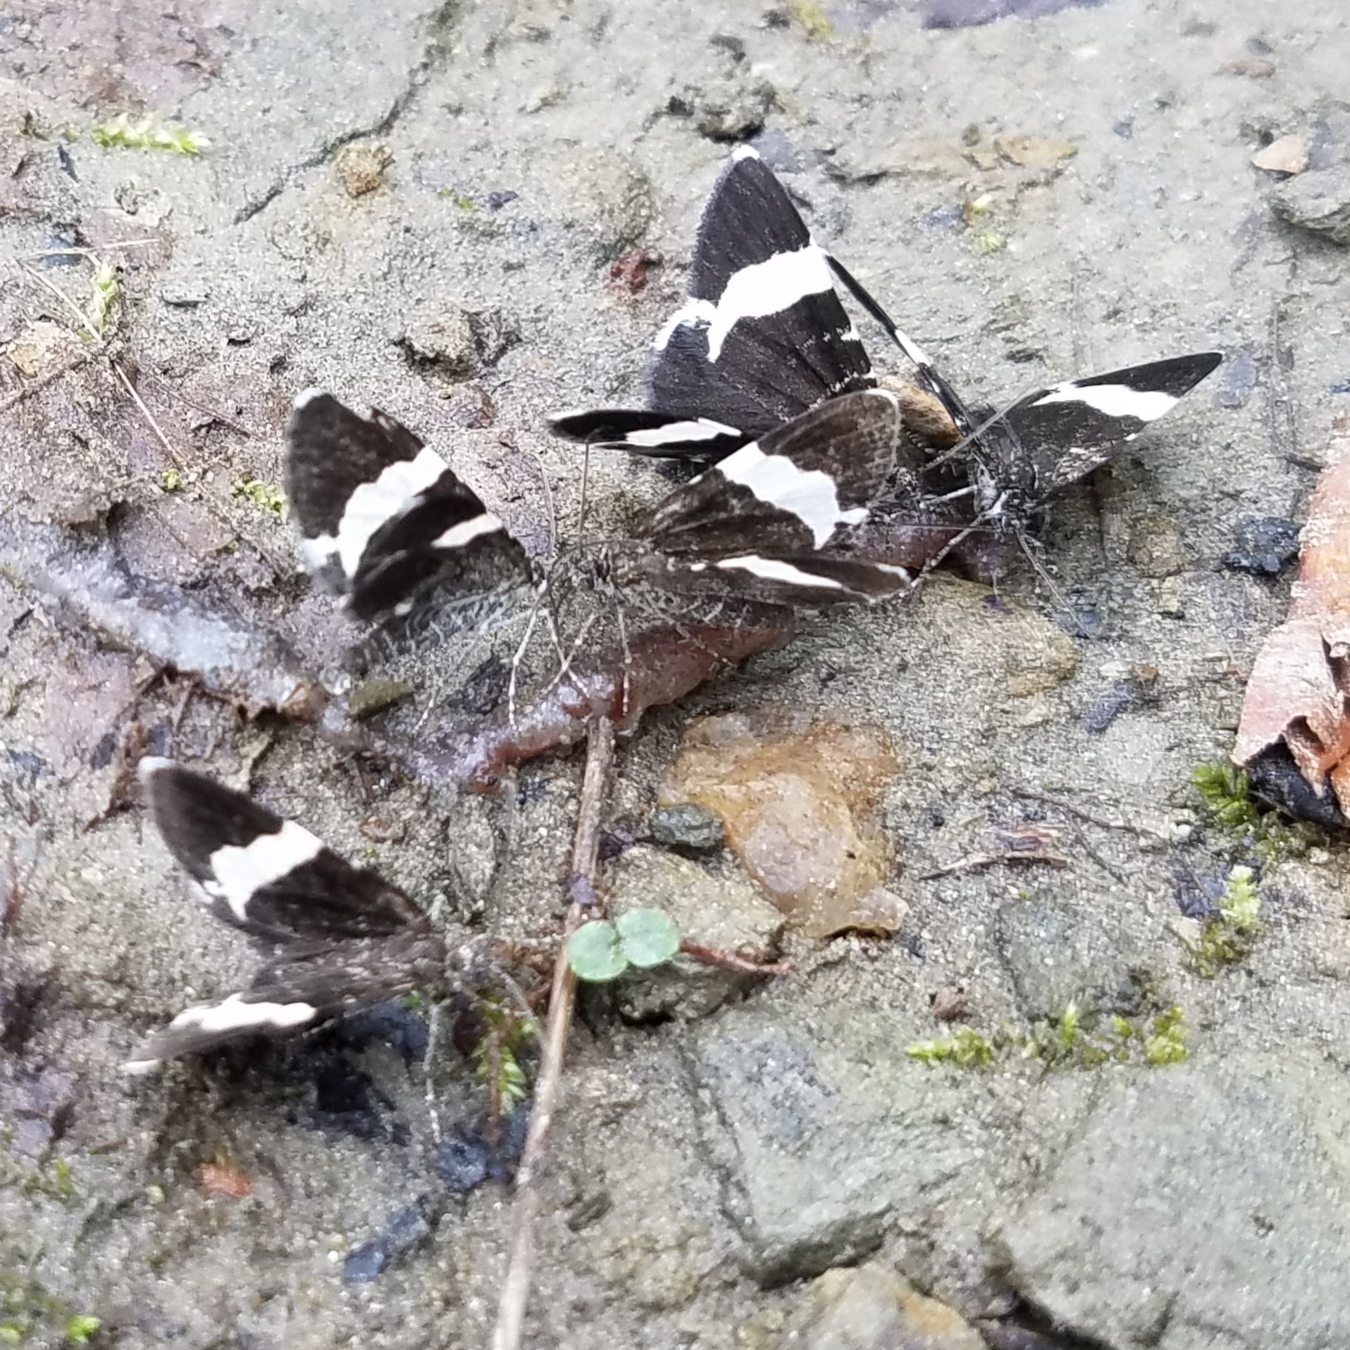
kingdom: Animalia
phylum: Arthropoda
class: Insecta
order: Lepidoptera
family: Geometridae
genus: Trichodezia
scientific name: Trichodezia albovittata
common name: White striped black
